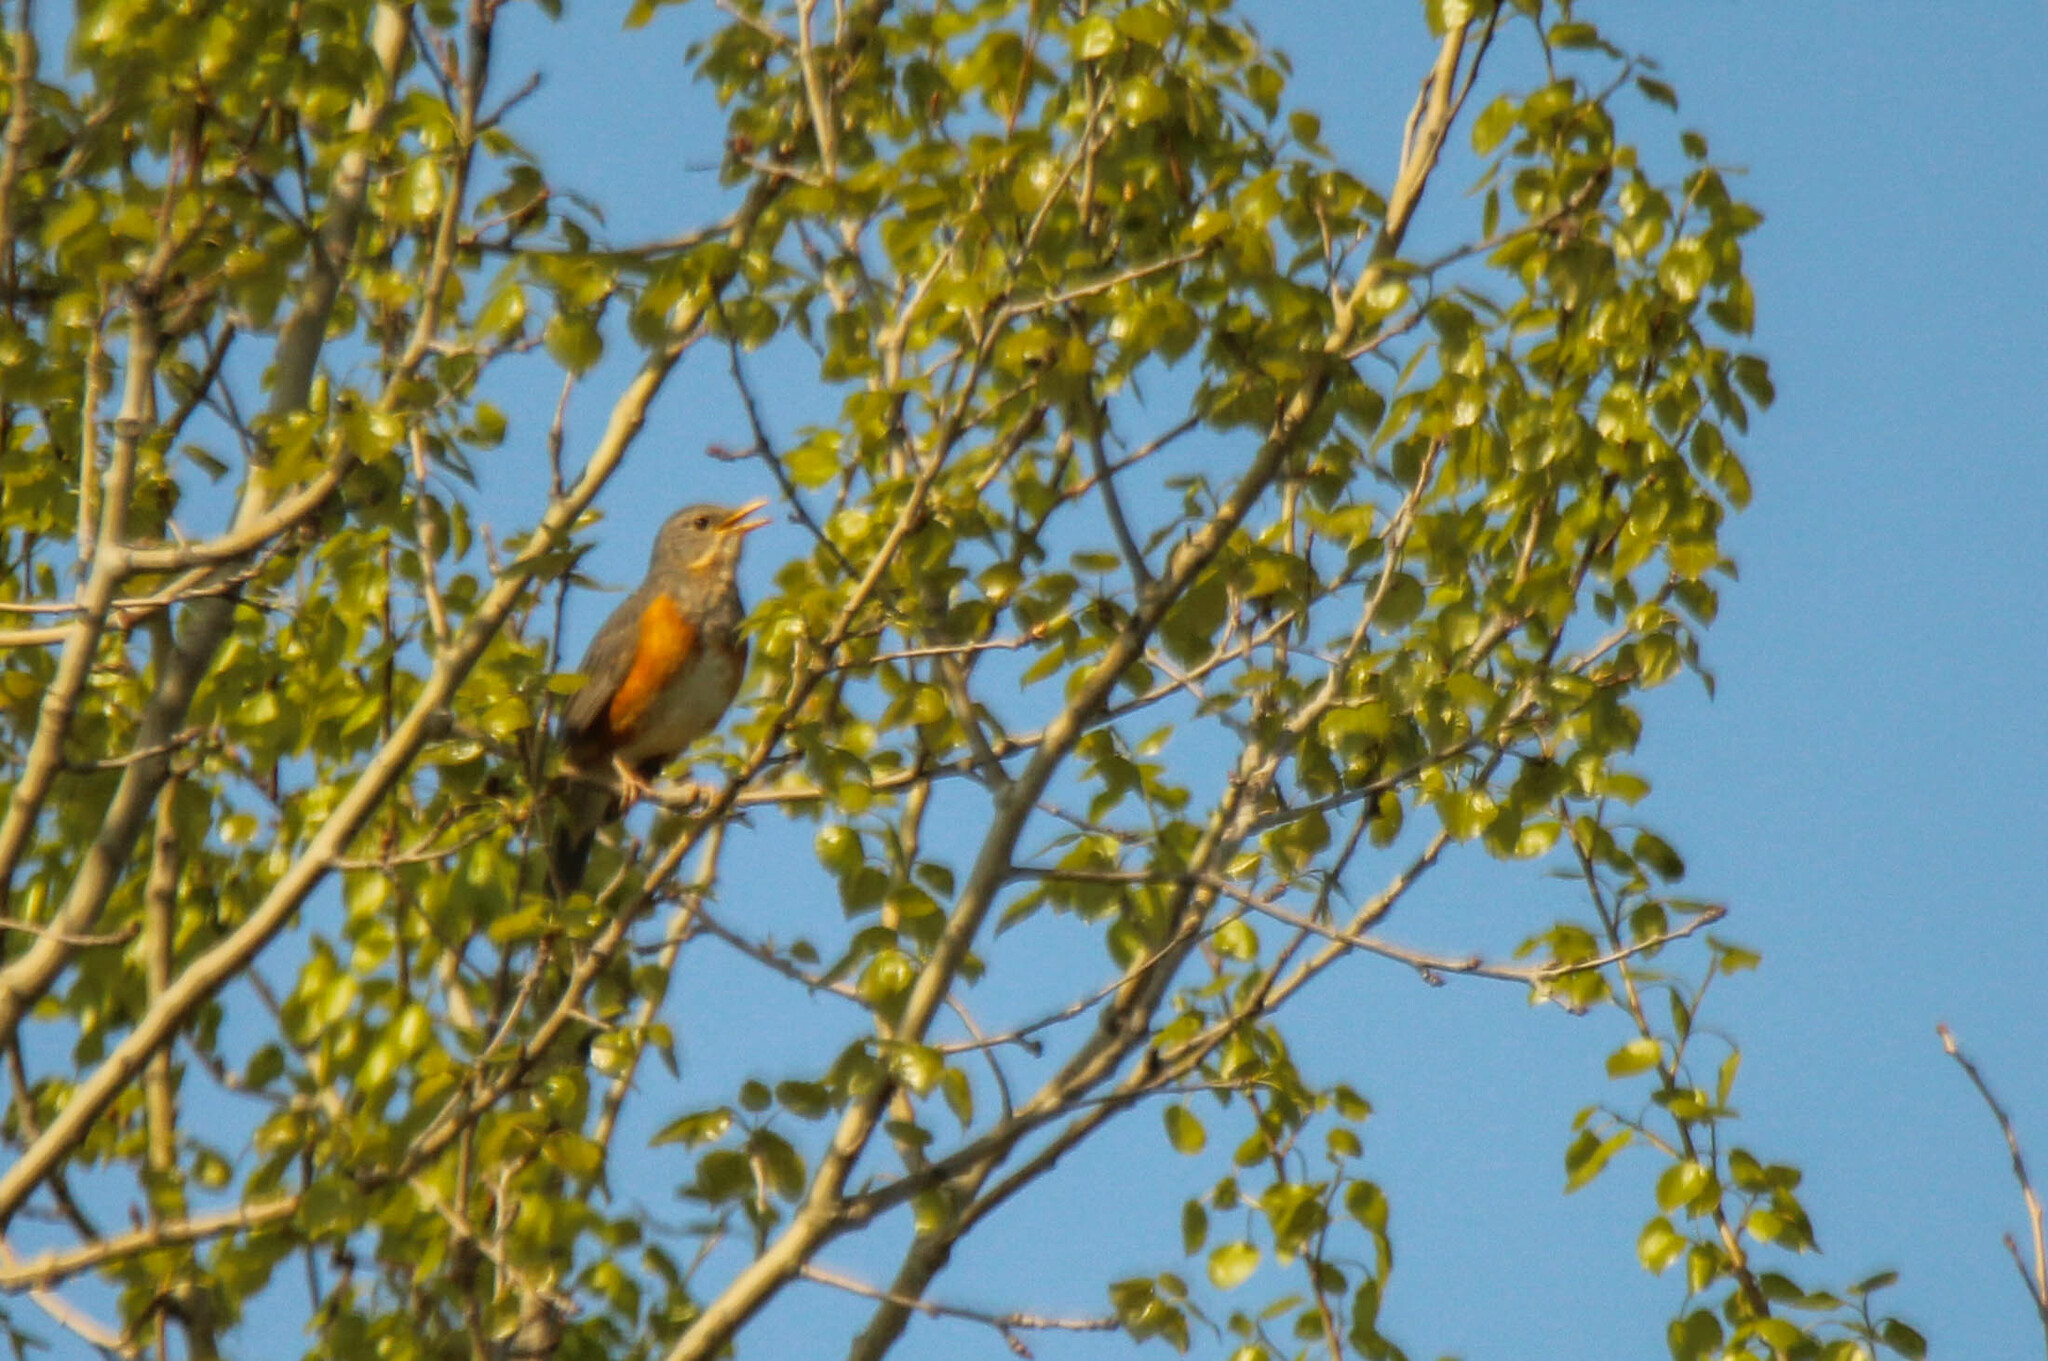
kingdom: Animalia
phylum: Chordata
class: Aves
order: Passeriformes
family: Turdidae
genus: Turdus
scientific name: Turdus hortulorum
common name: Grey-backed thrush
